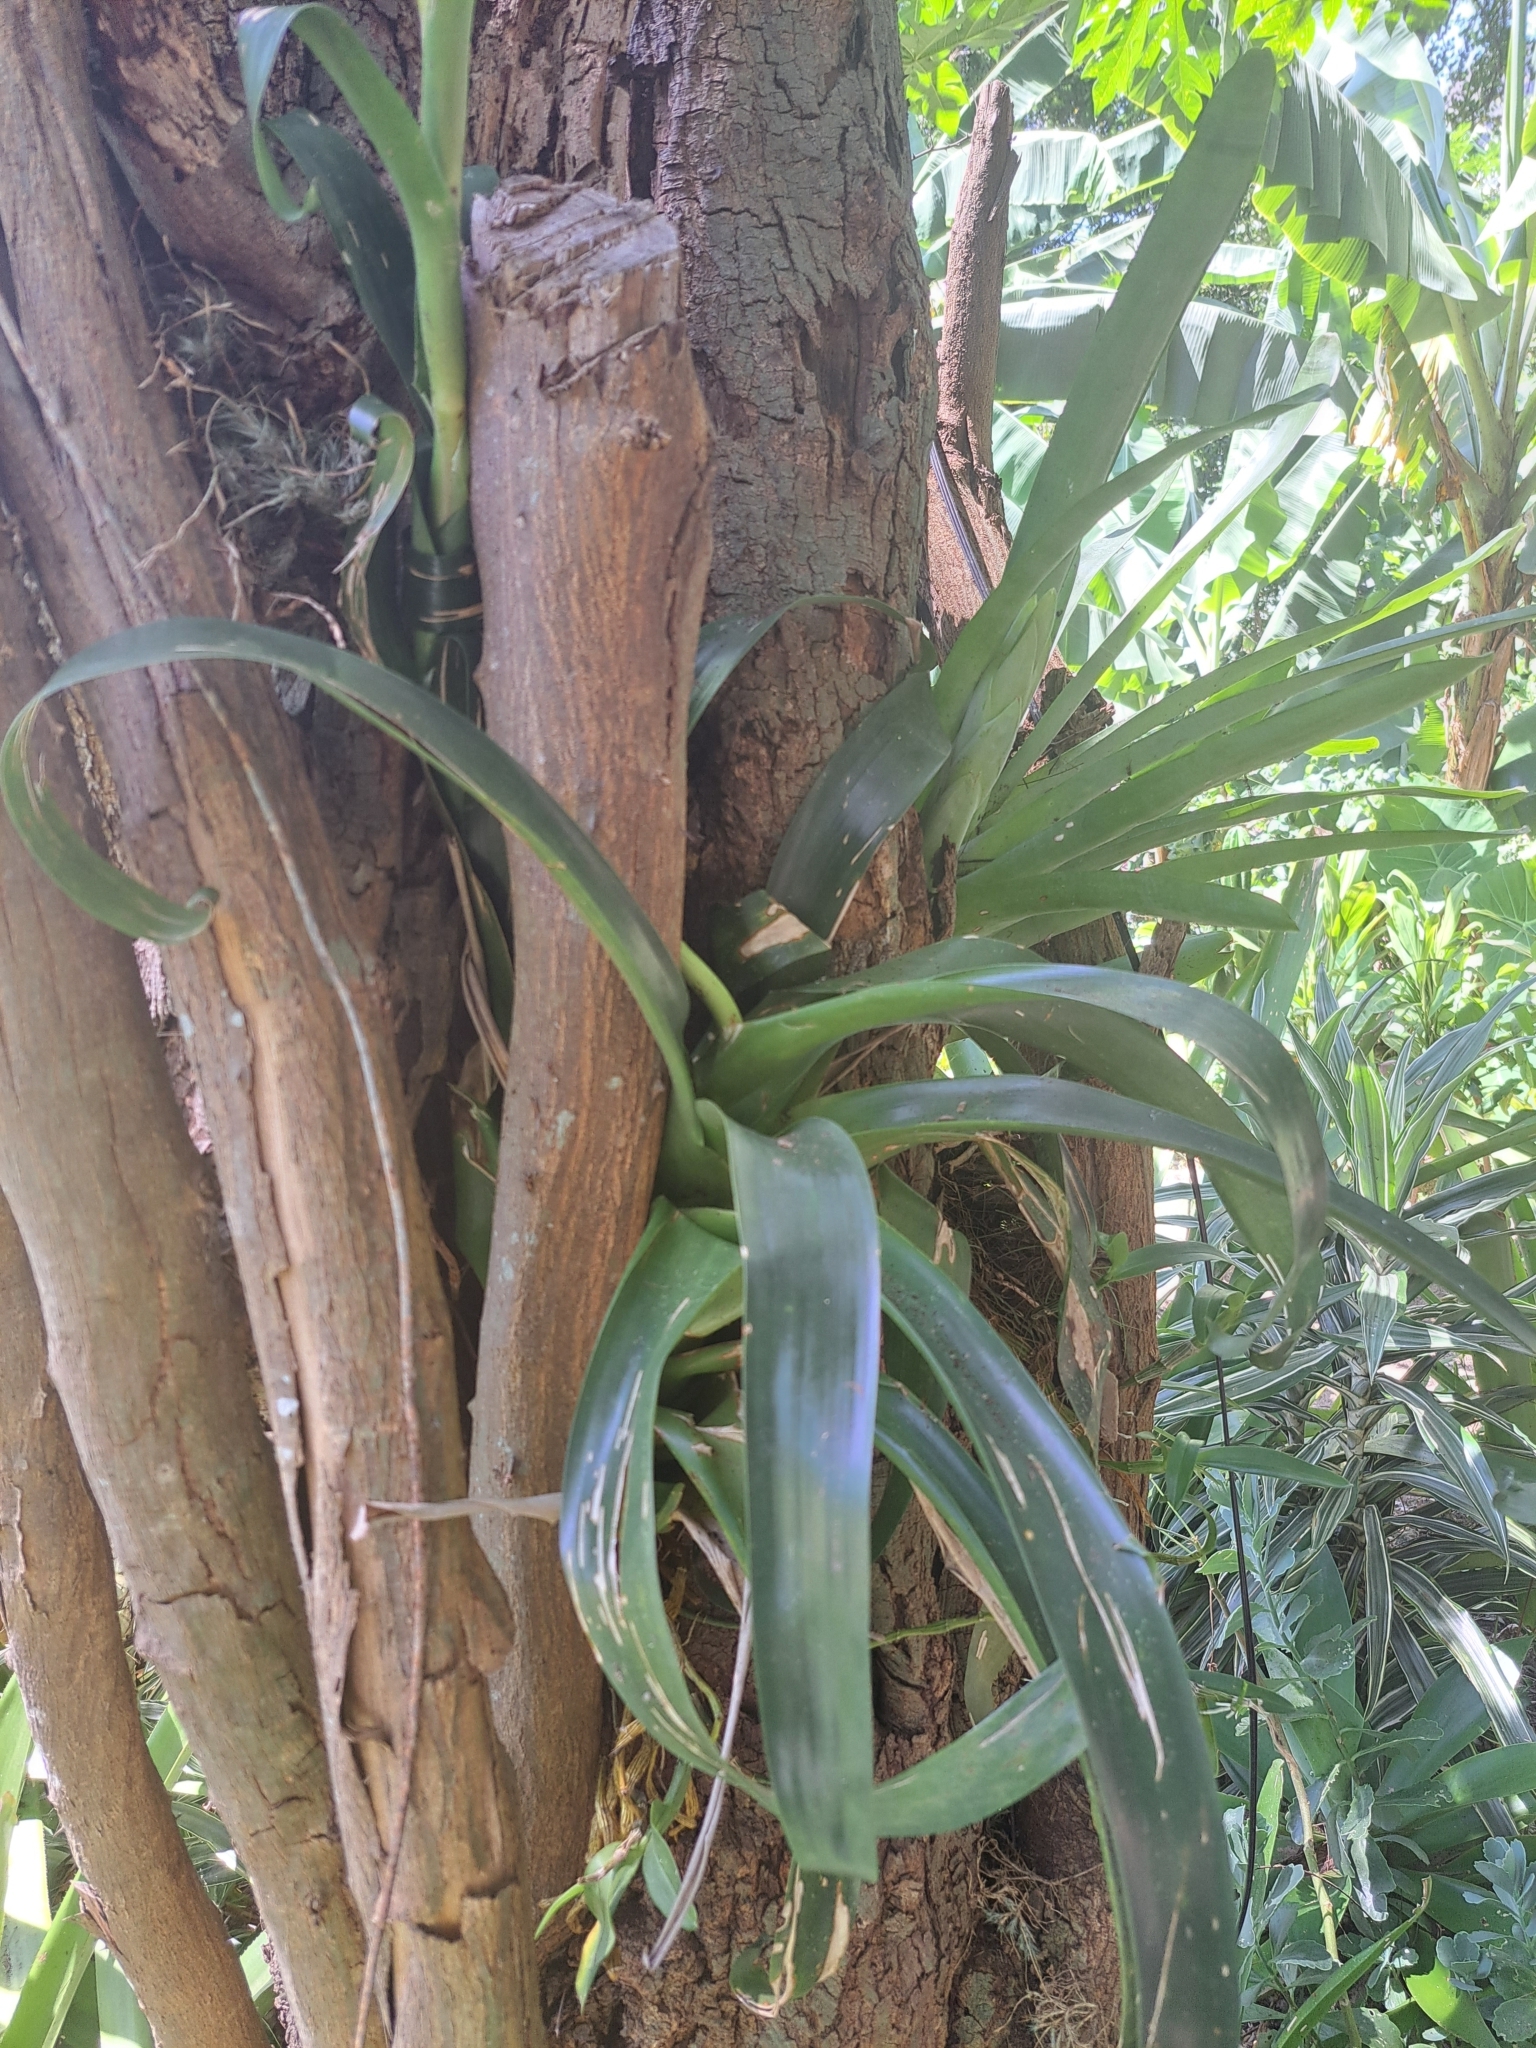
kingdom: Plantae
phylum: Tracheophyta
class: Liliopsida
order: Poales
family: Bromeliaceae
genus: Vriesea
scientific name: Vriesea procera
